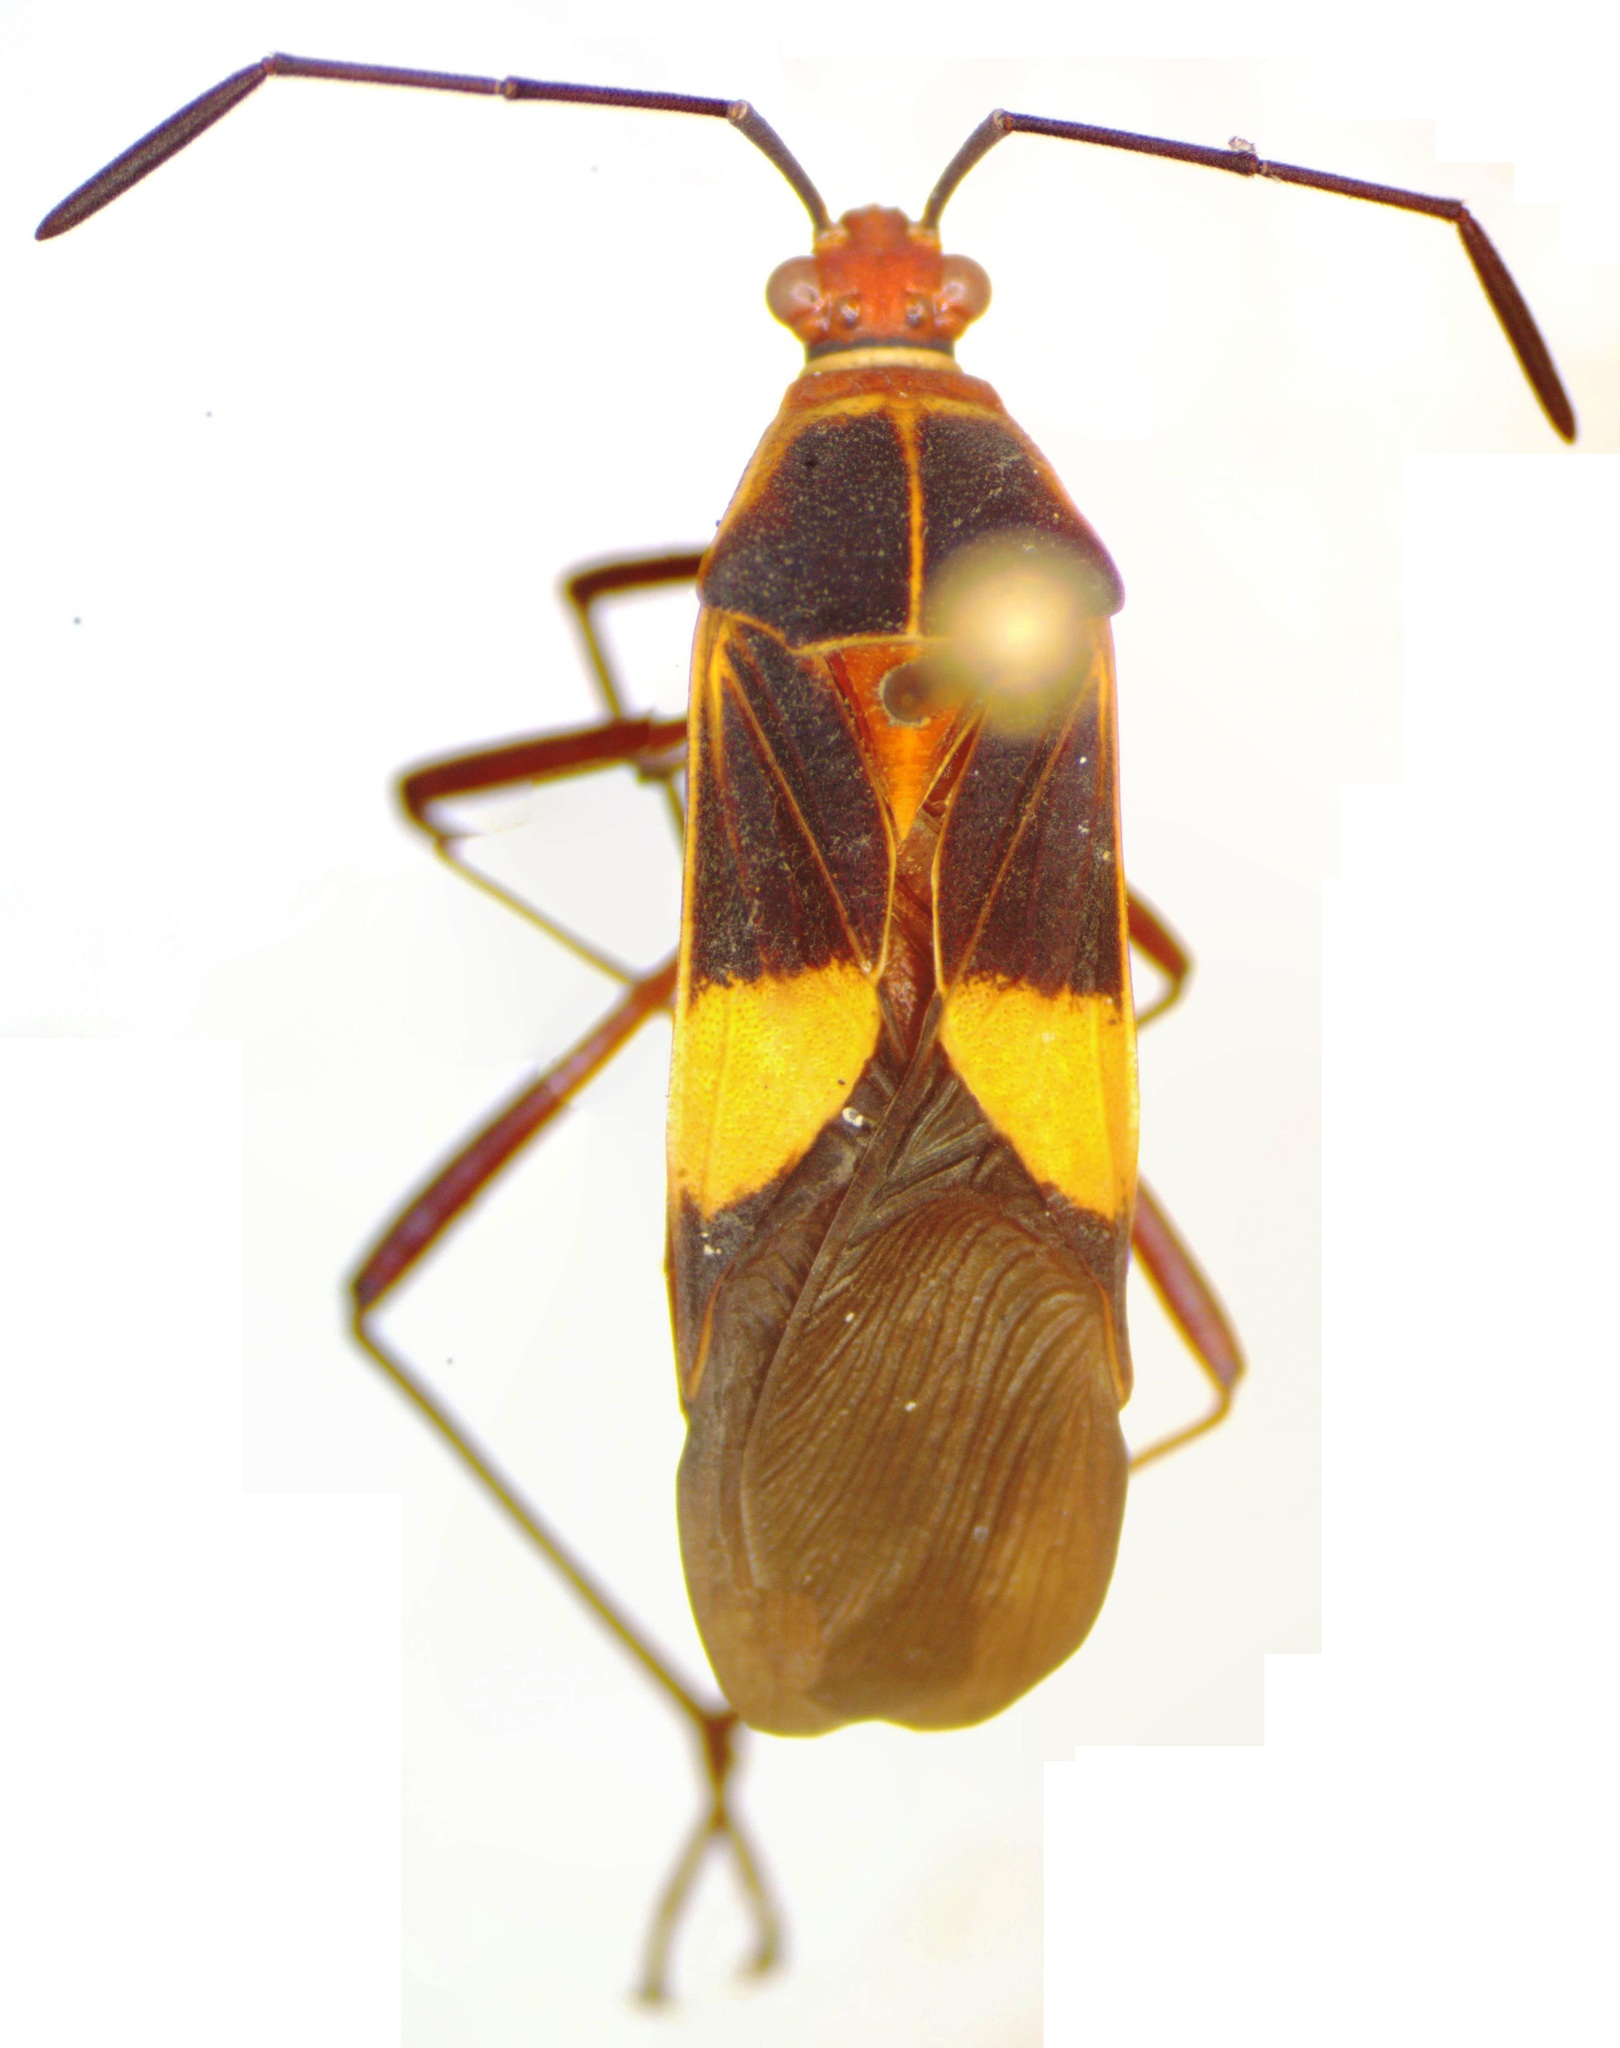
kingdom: Animalia
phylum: Arthropoda
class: Insecta
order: Hemiptera
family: Coreidae
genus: Hypselonotus
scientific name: Hypselonotus interruptus
